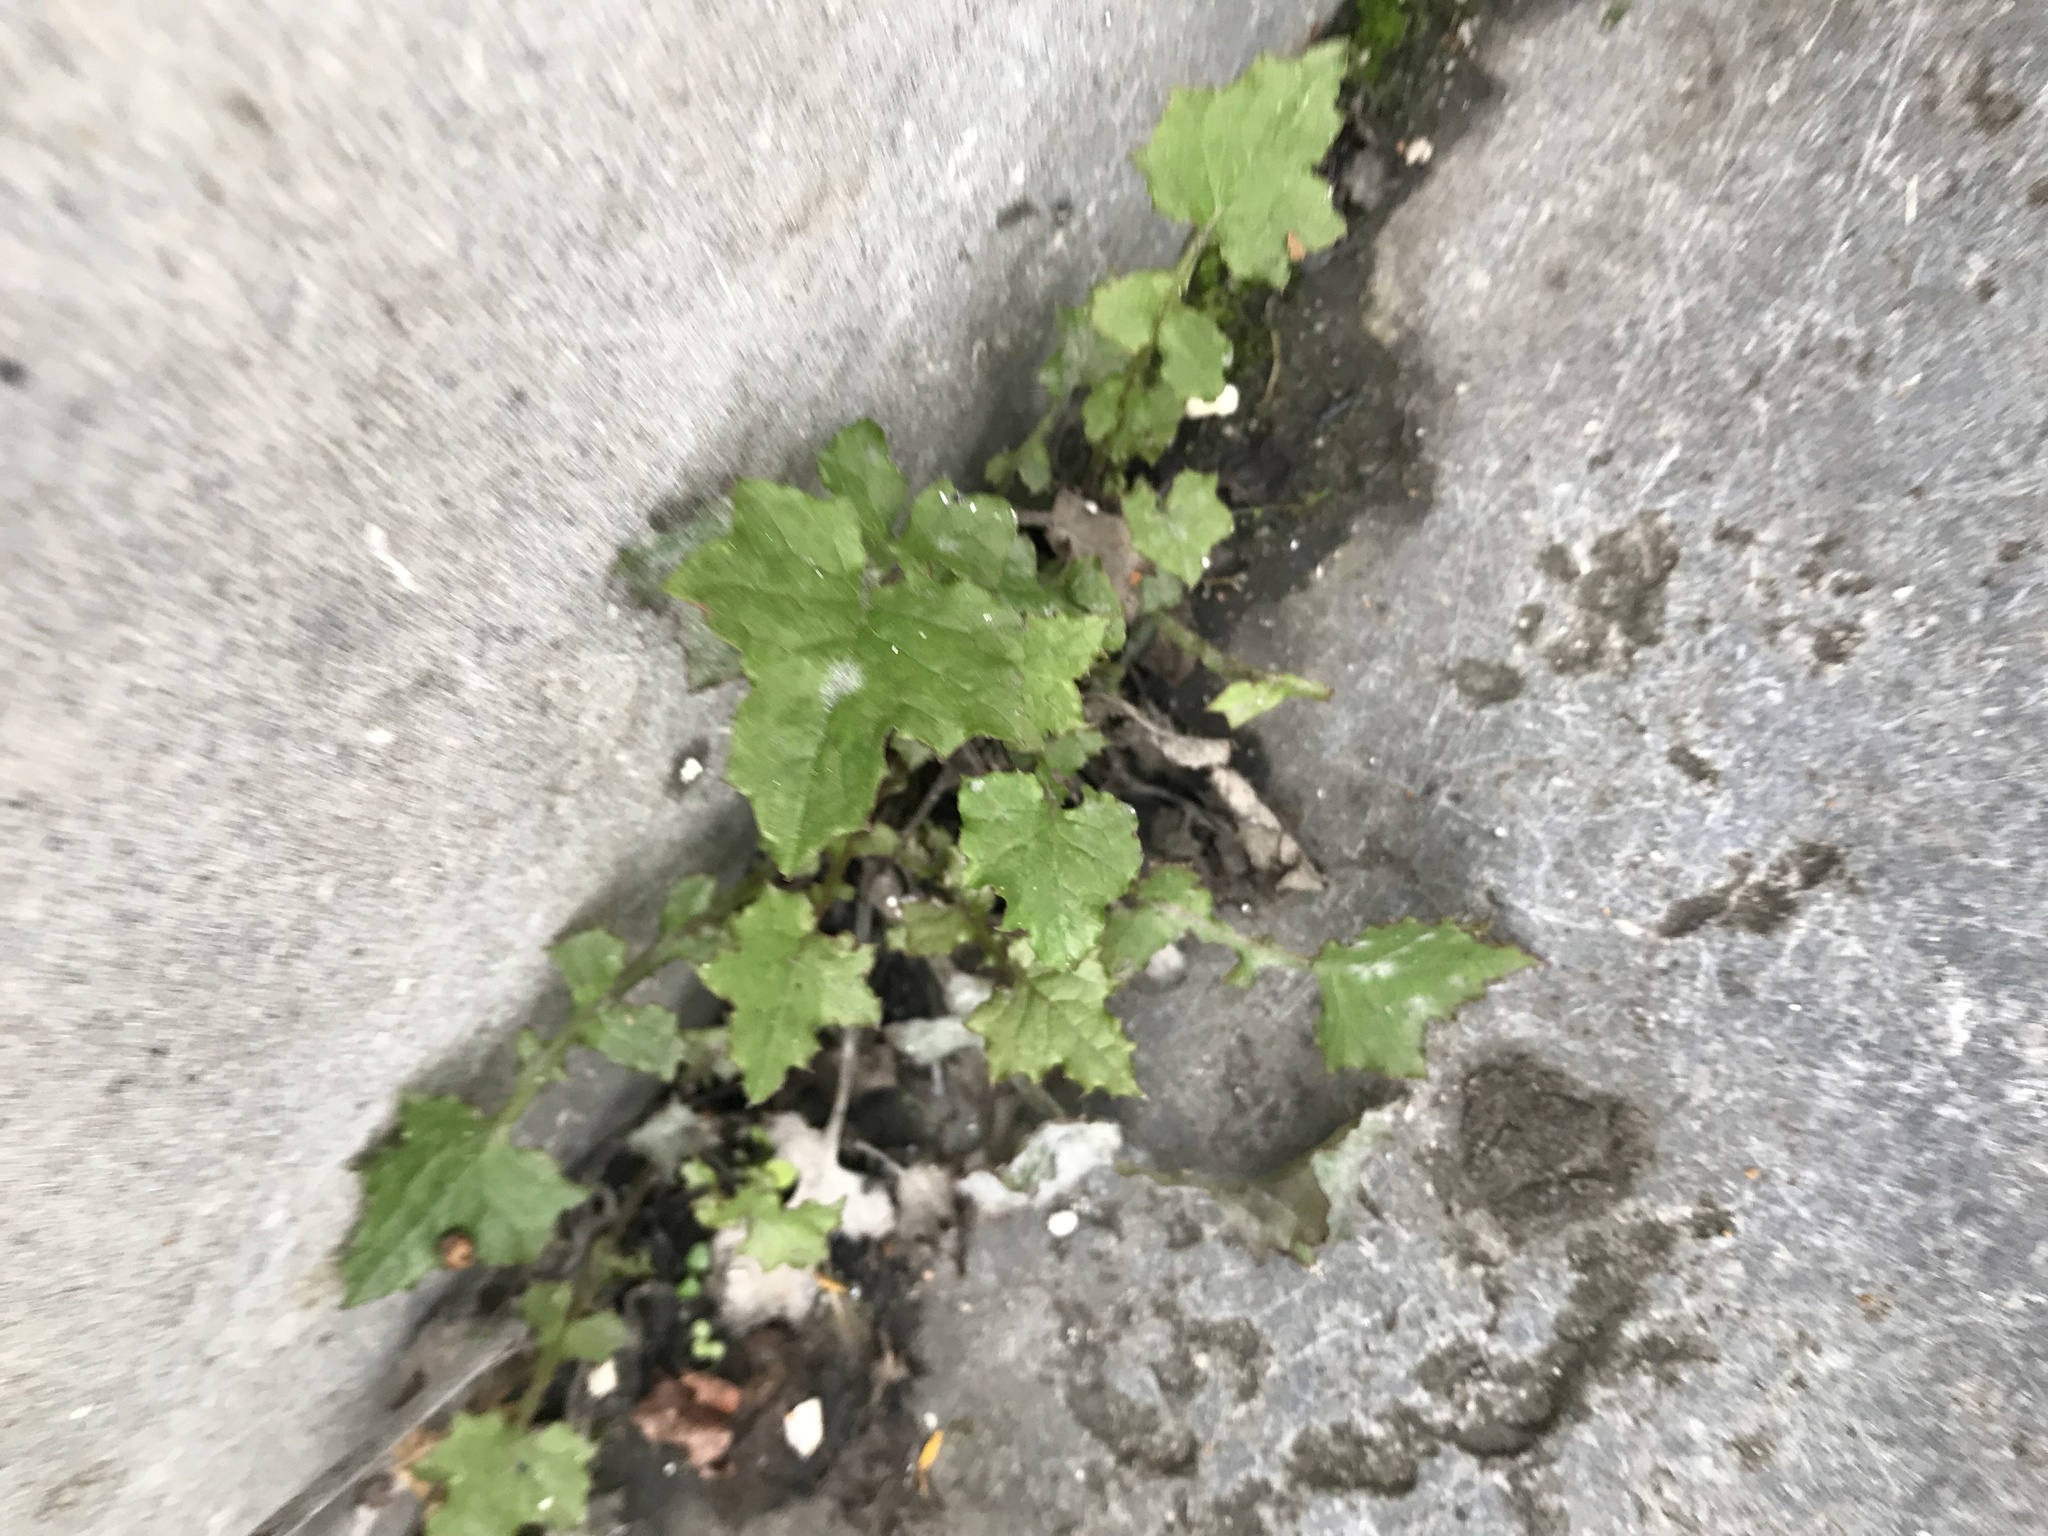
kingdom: Plantae
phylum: Tracheophyta
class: Magnoliopsida
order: Asterales
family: Asteraceae
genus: Mycelis
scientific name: Mycelis muralis
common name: Wall lettuce
